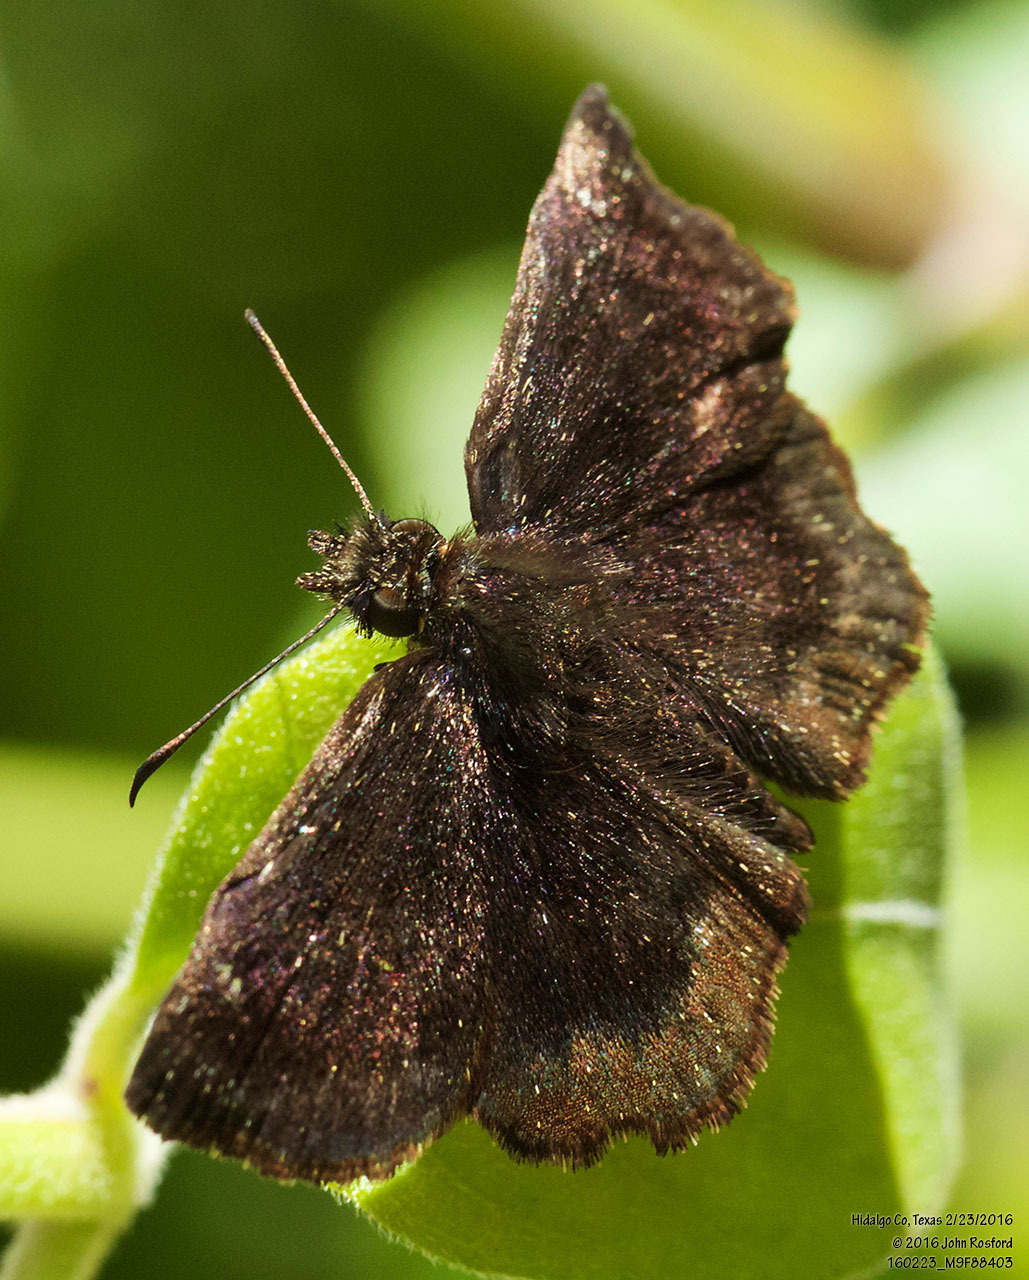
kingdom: Animalia
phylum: Arthropoda
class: Insecta
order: Lepidoptera
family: Hesperiidae
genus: Staphylus
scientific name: Staphylus mazans
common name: Mazans scallopwing
